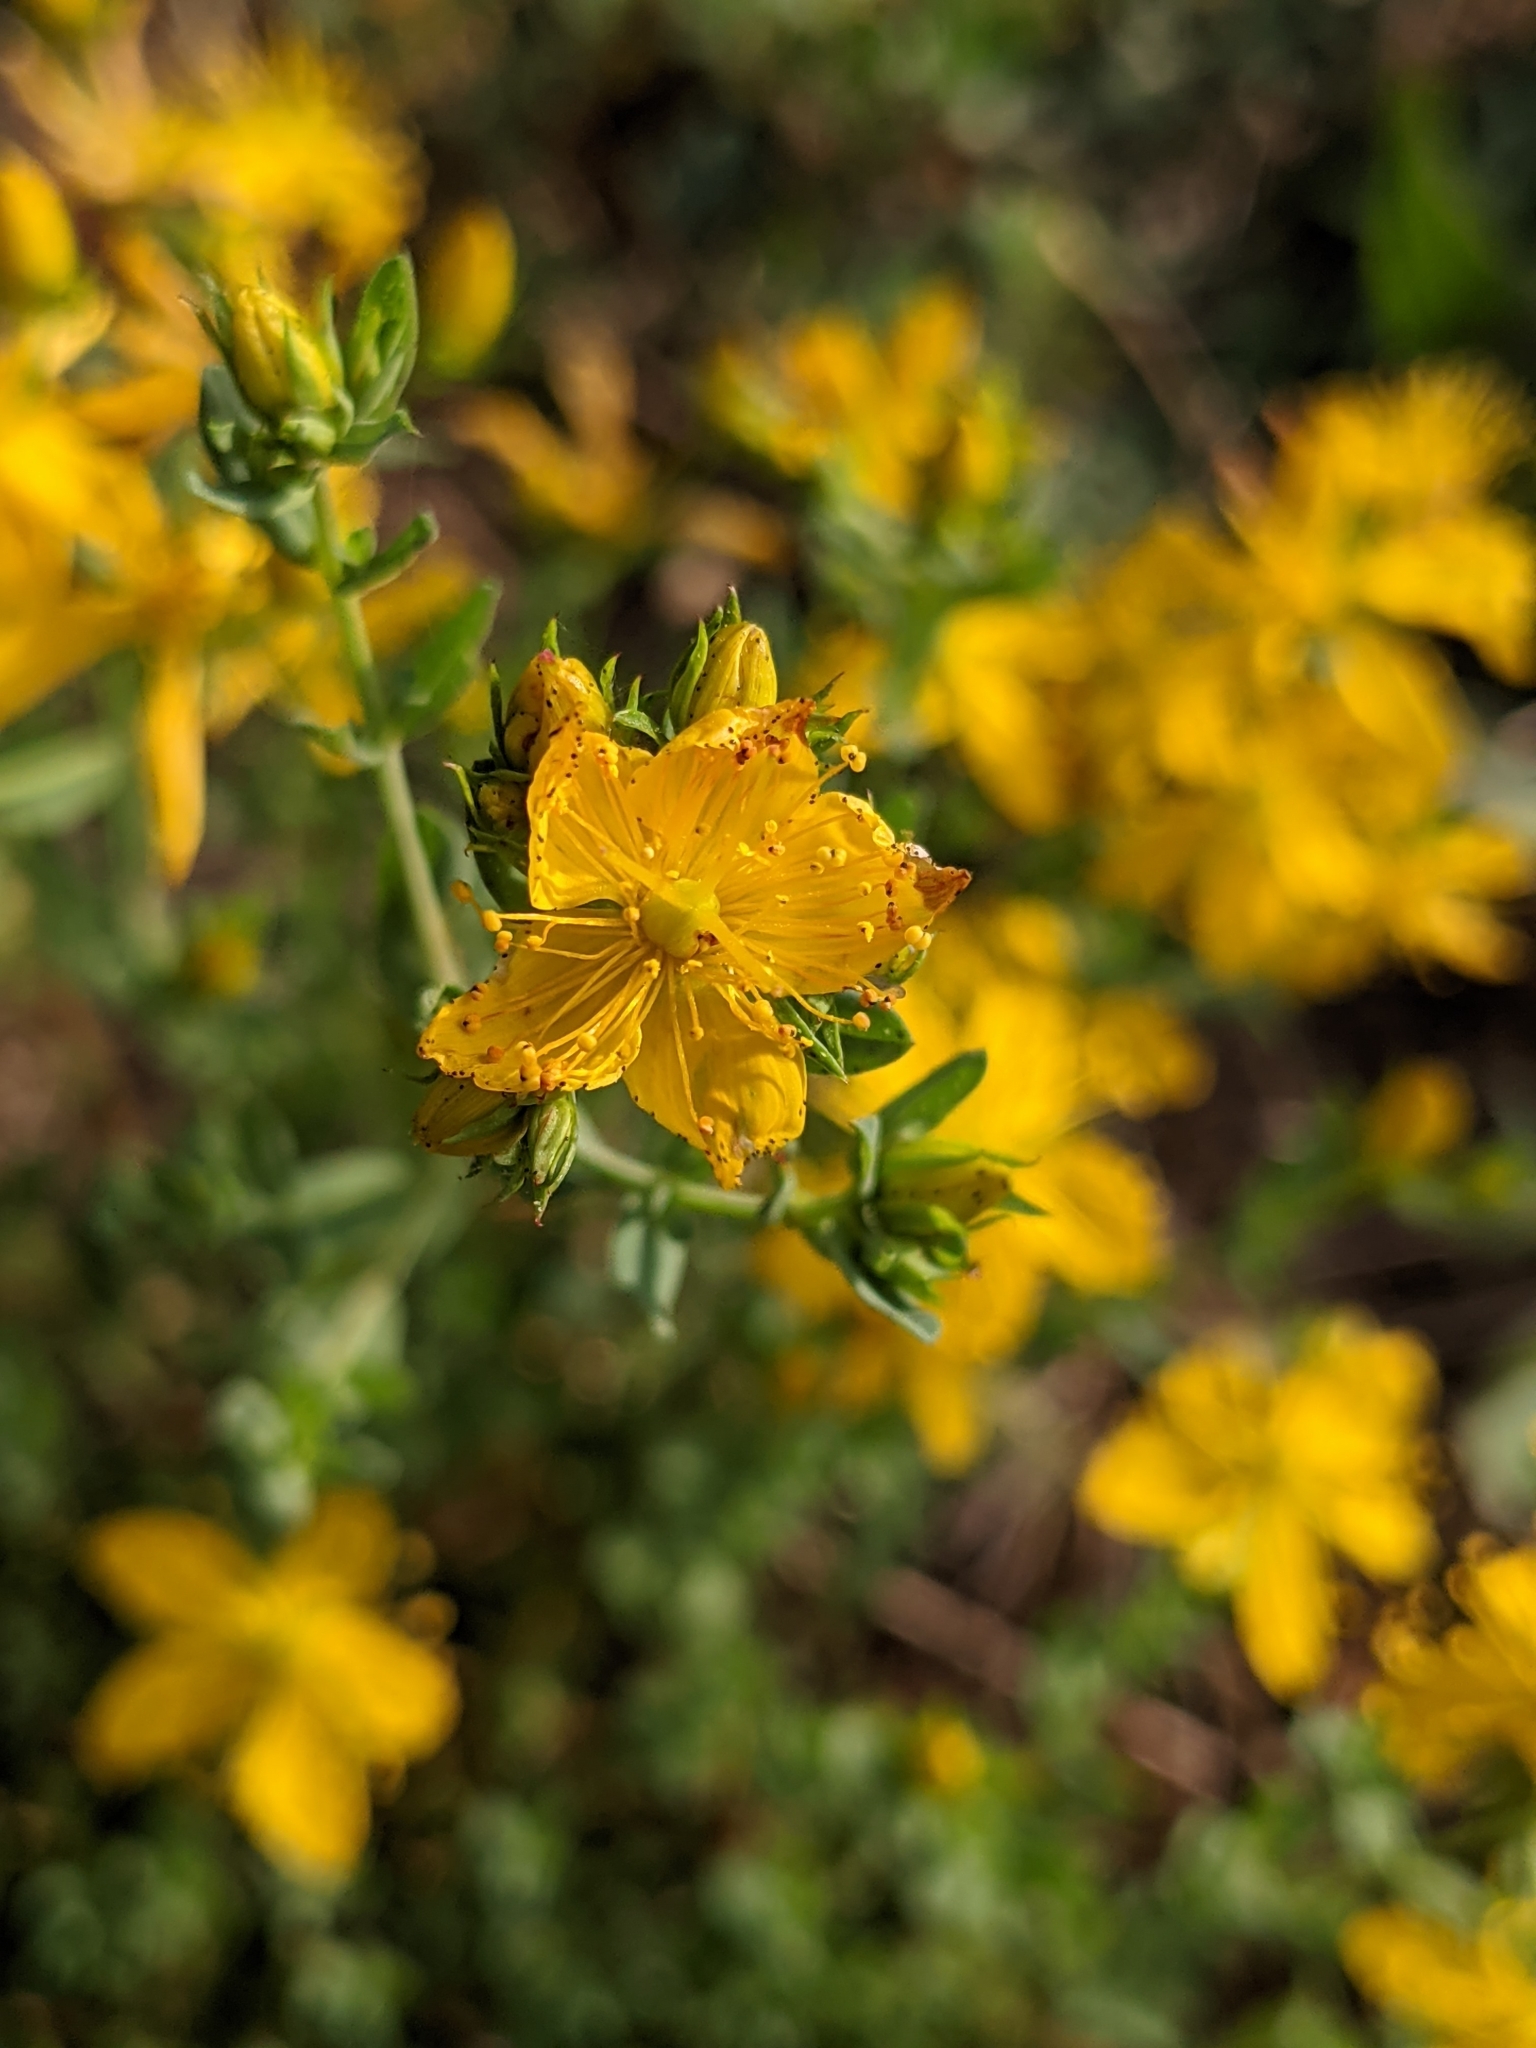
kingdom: Plantae
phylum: Tracheophyta
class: Magnoliopsida
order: Malpighiales
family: Hypericaceae
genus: Hypericum
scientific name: Hypericum perforatum
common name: Common st. johnswort
